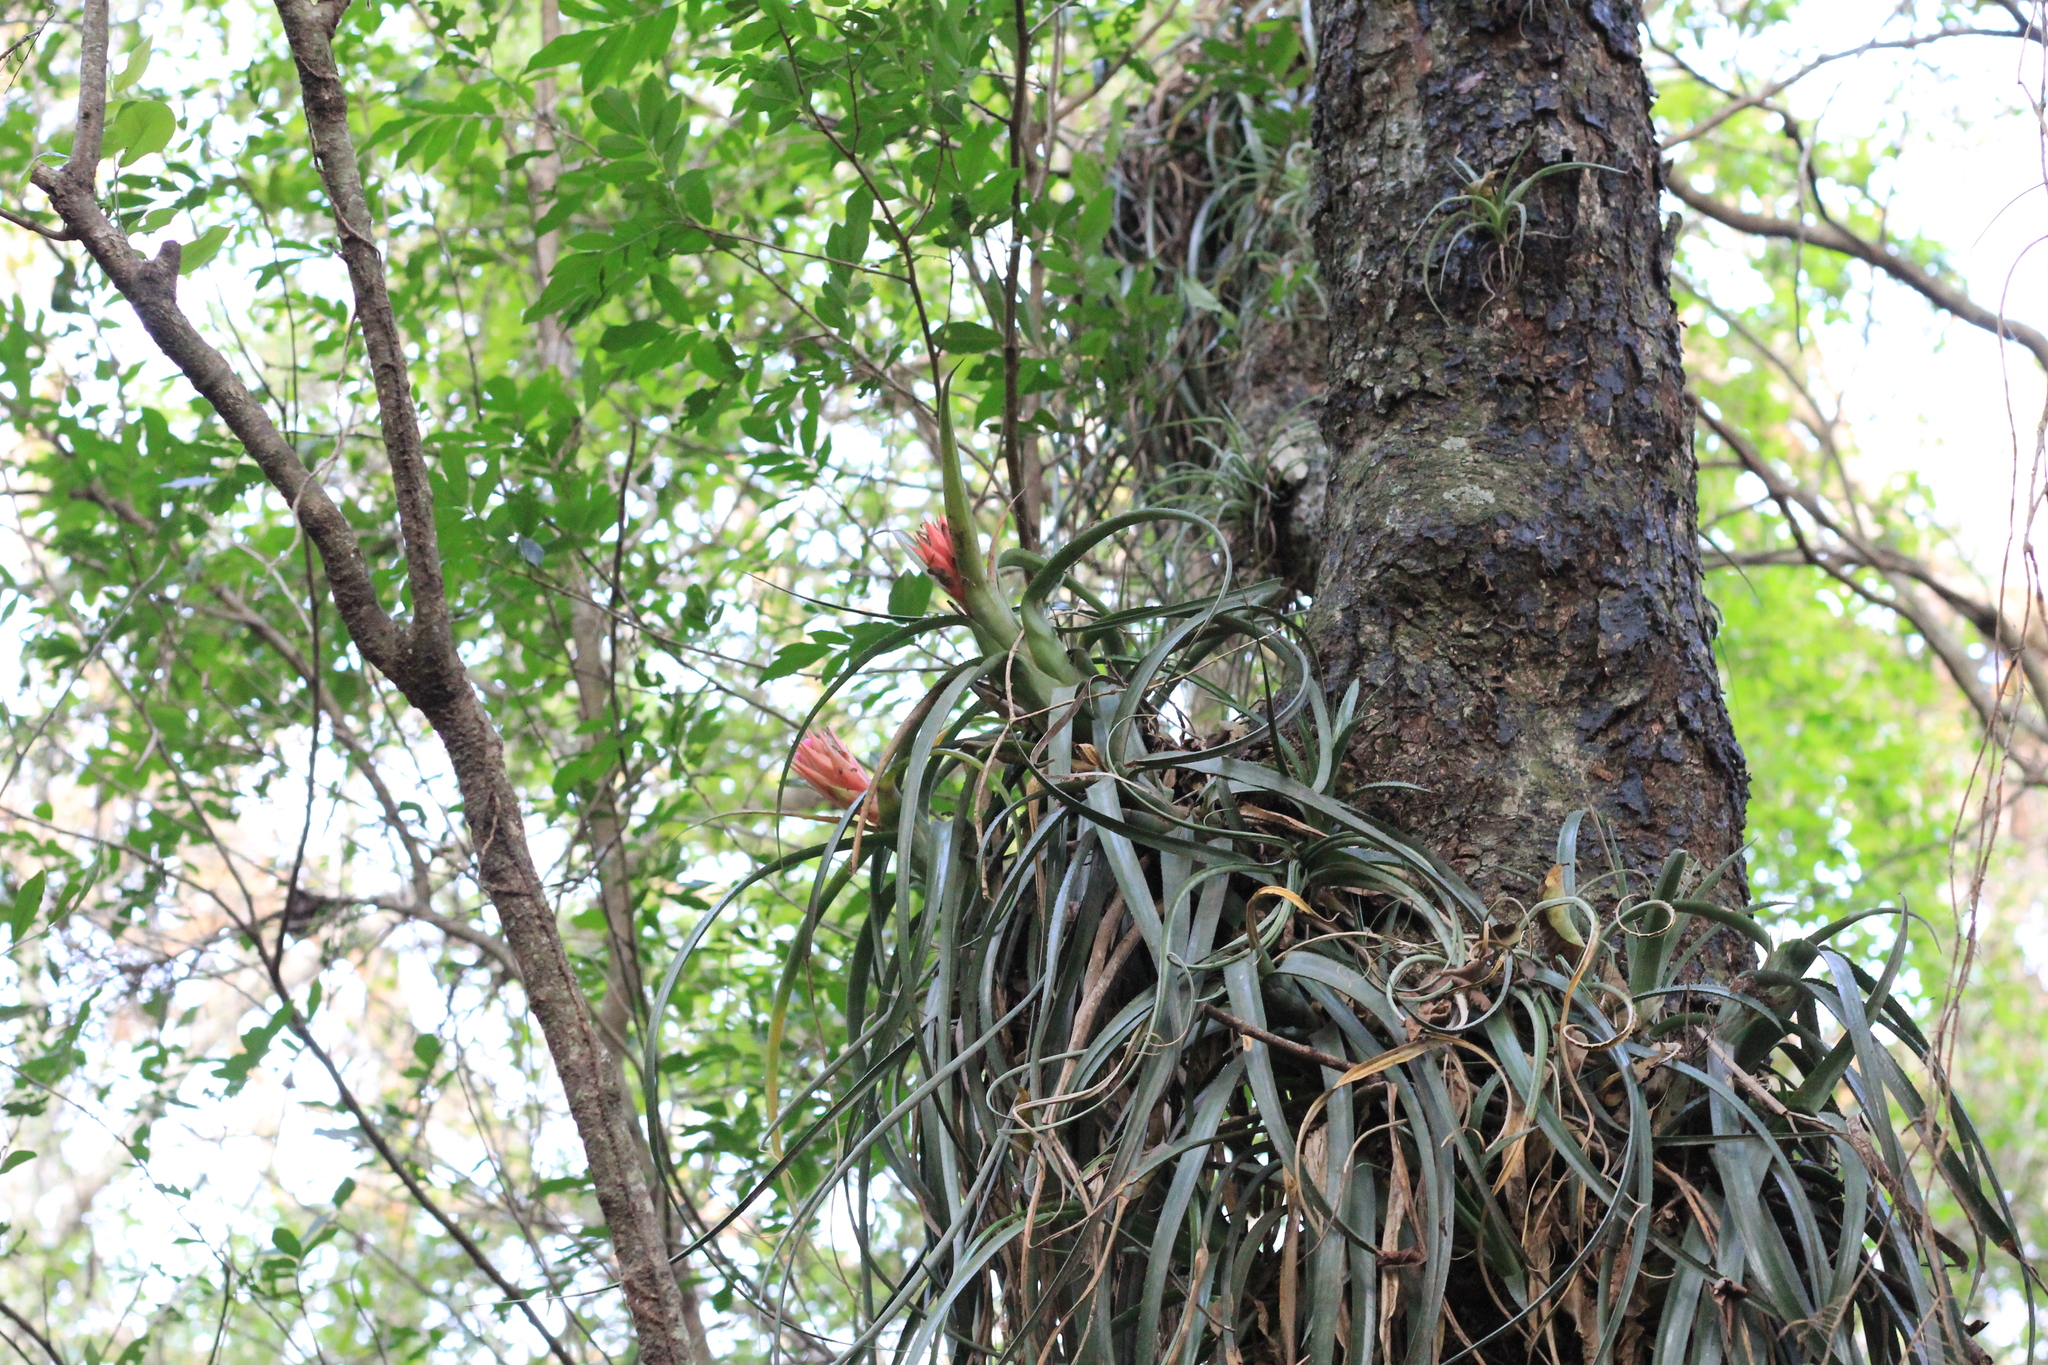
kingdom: Plantae
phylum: Tracheophyta
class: Liliopsida
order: Poales
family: Bromeliaceae
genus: Aechmea
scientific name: Aechmea recurvata
